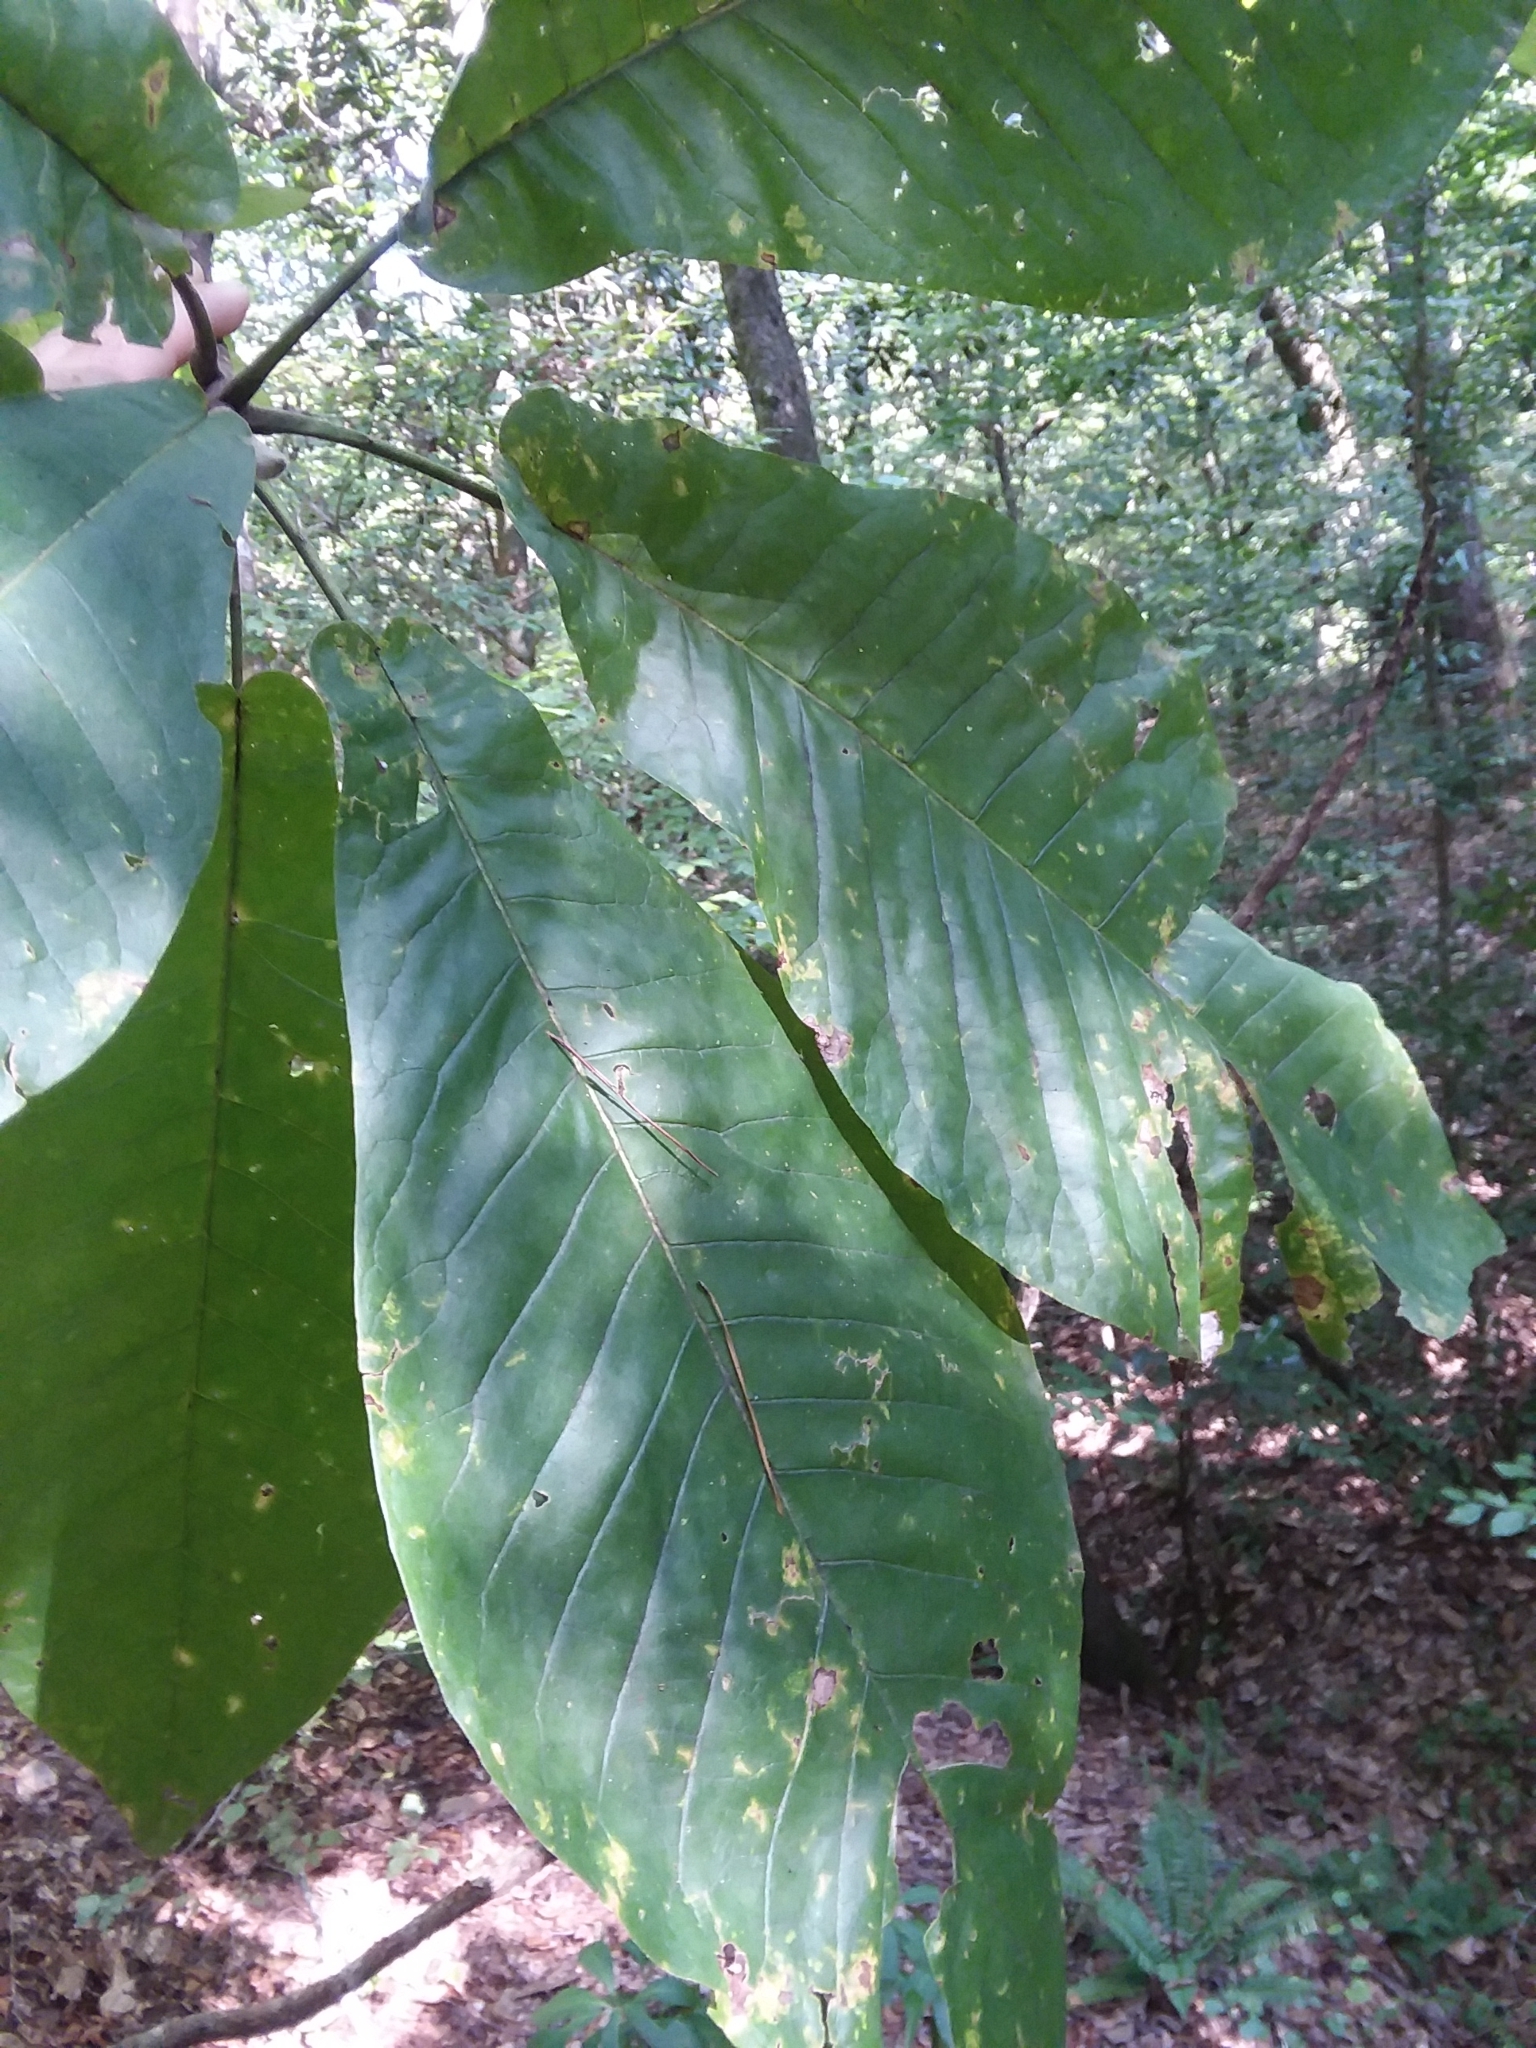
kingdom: Plantae
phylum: Tracheophyta
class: Magnoliopsida
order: Magnoliales
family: Magnoliaceae
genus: Magnolia
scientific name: Magnolia macrophylla
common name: Big-leaf magnolia
